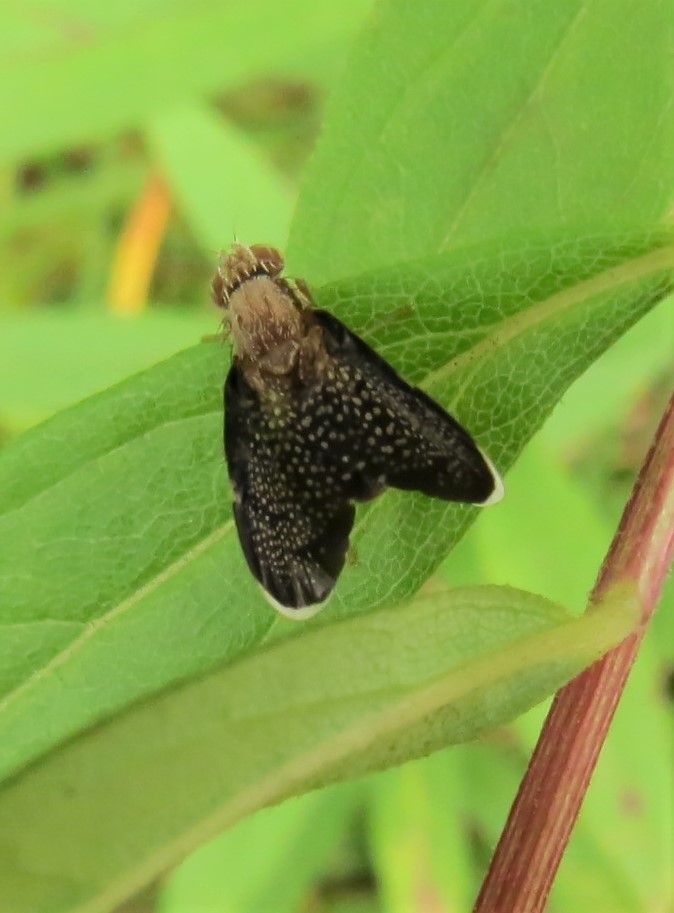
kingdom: Animalia
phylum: Arthropoda
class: Insecta
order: Diptera
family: Tephritidae
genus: Eutreta
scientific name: Eutreta novaeboracensis
